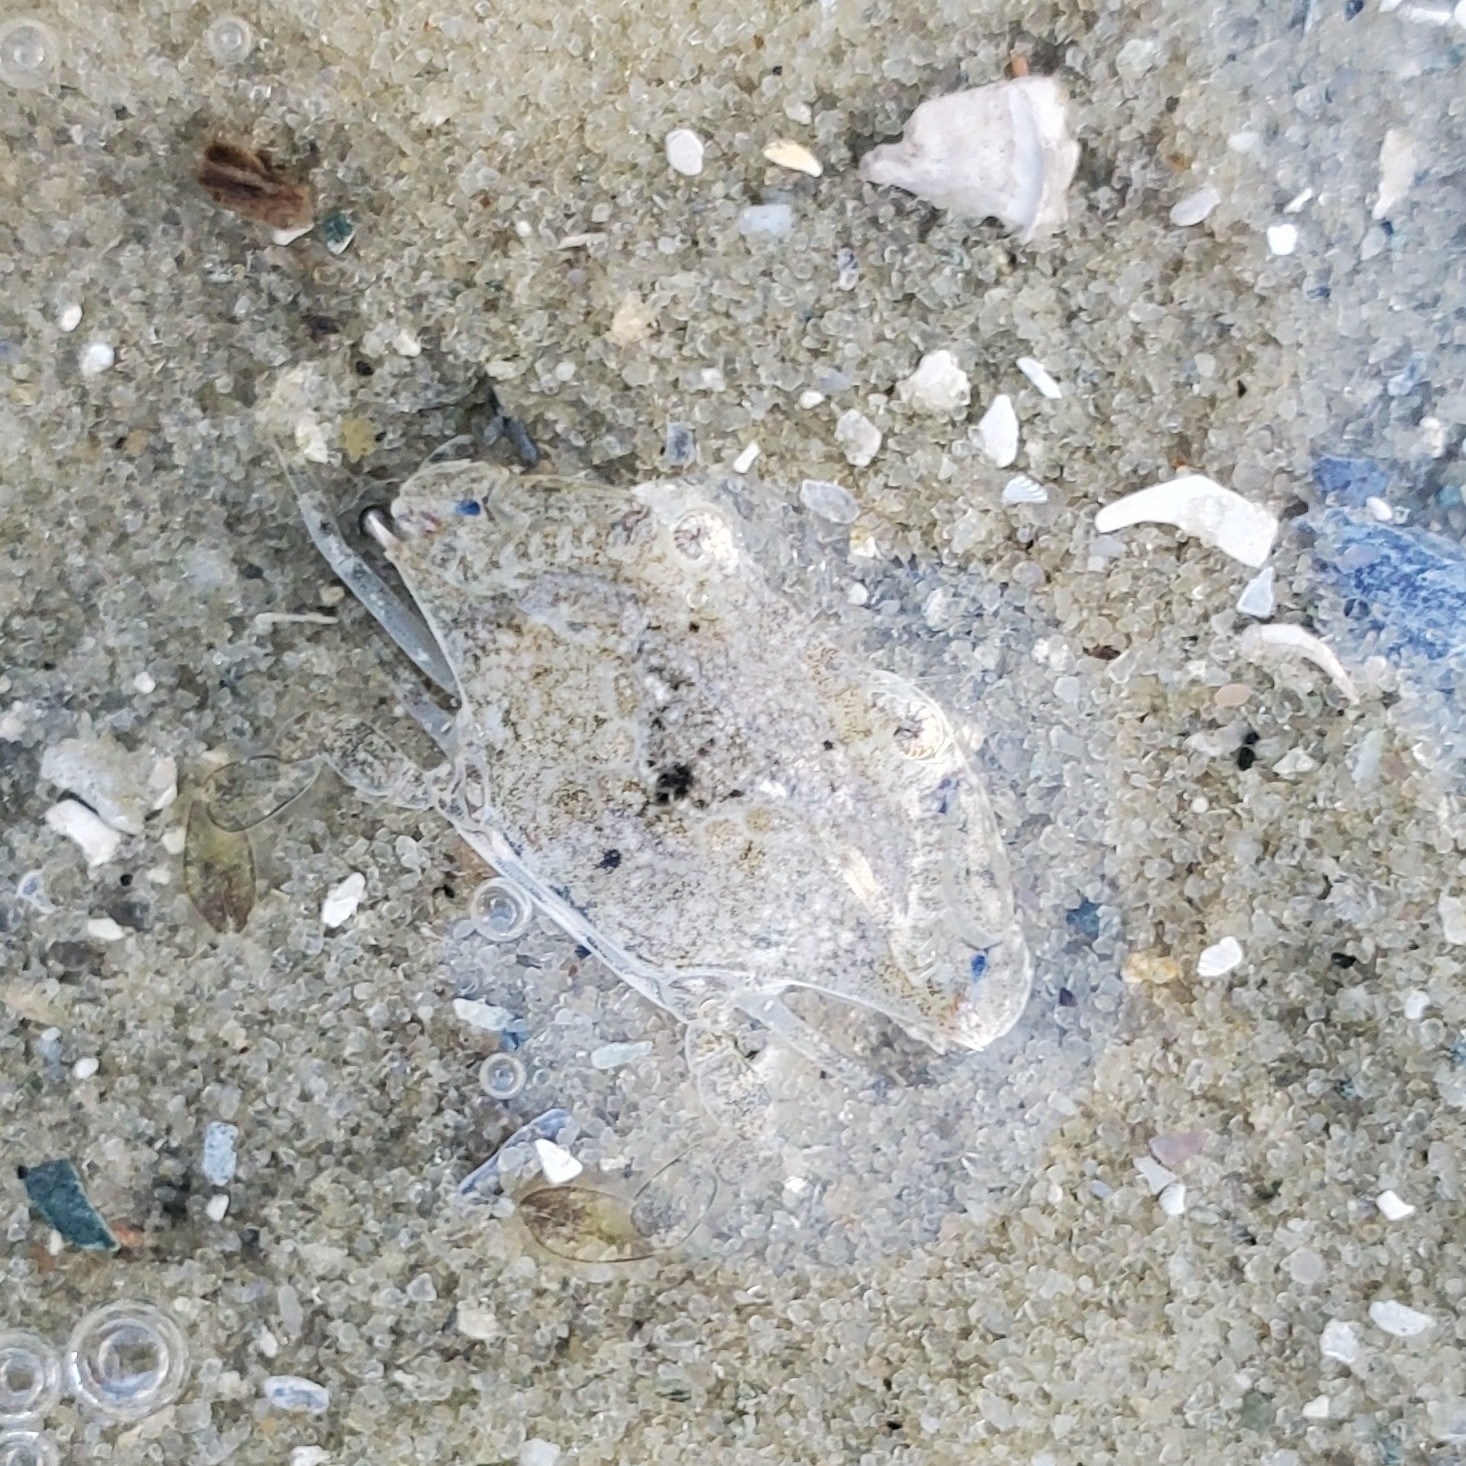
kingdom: Animalia
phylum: Arthropoda
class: Malacostraca
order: Decapoda
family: Portunidae
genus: Callinectes
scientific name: Callinectes similis
